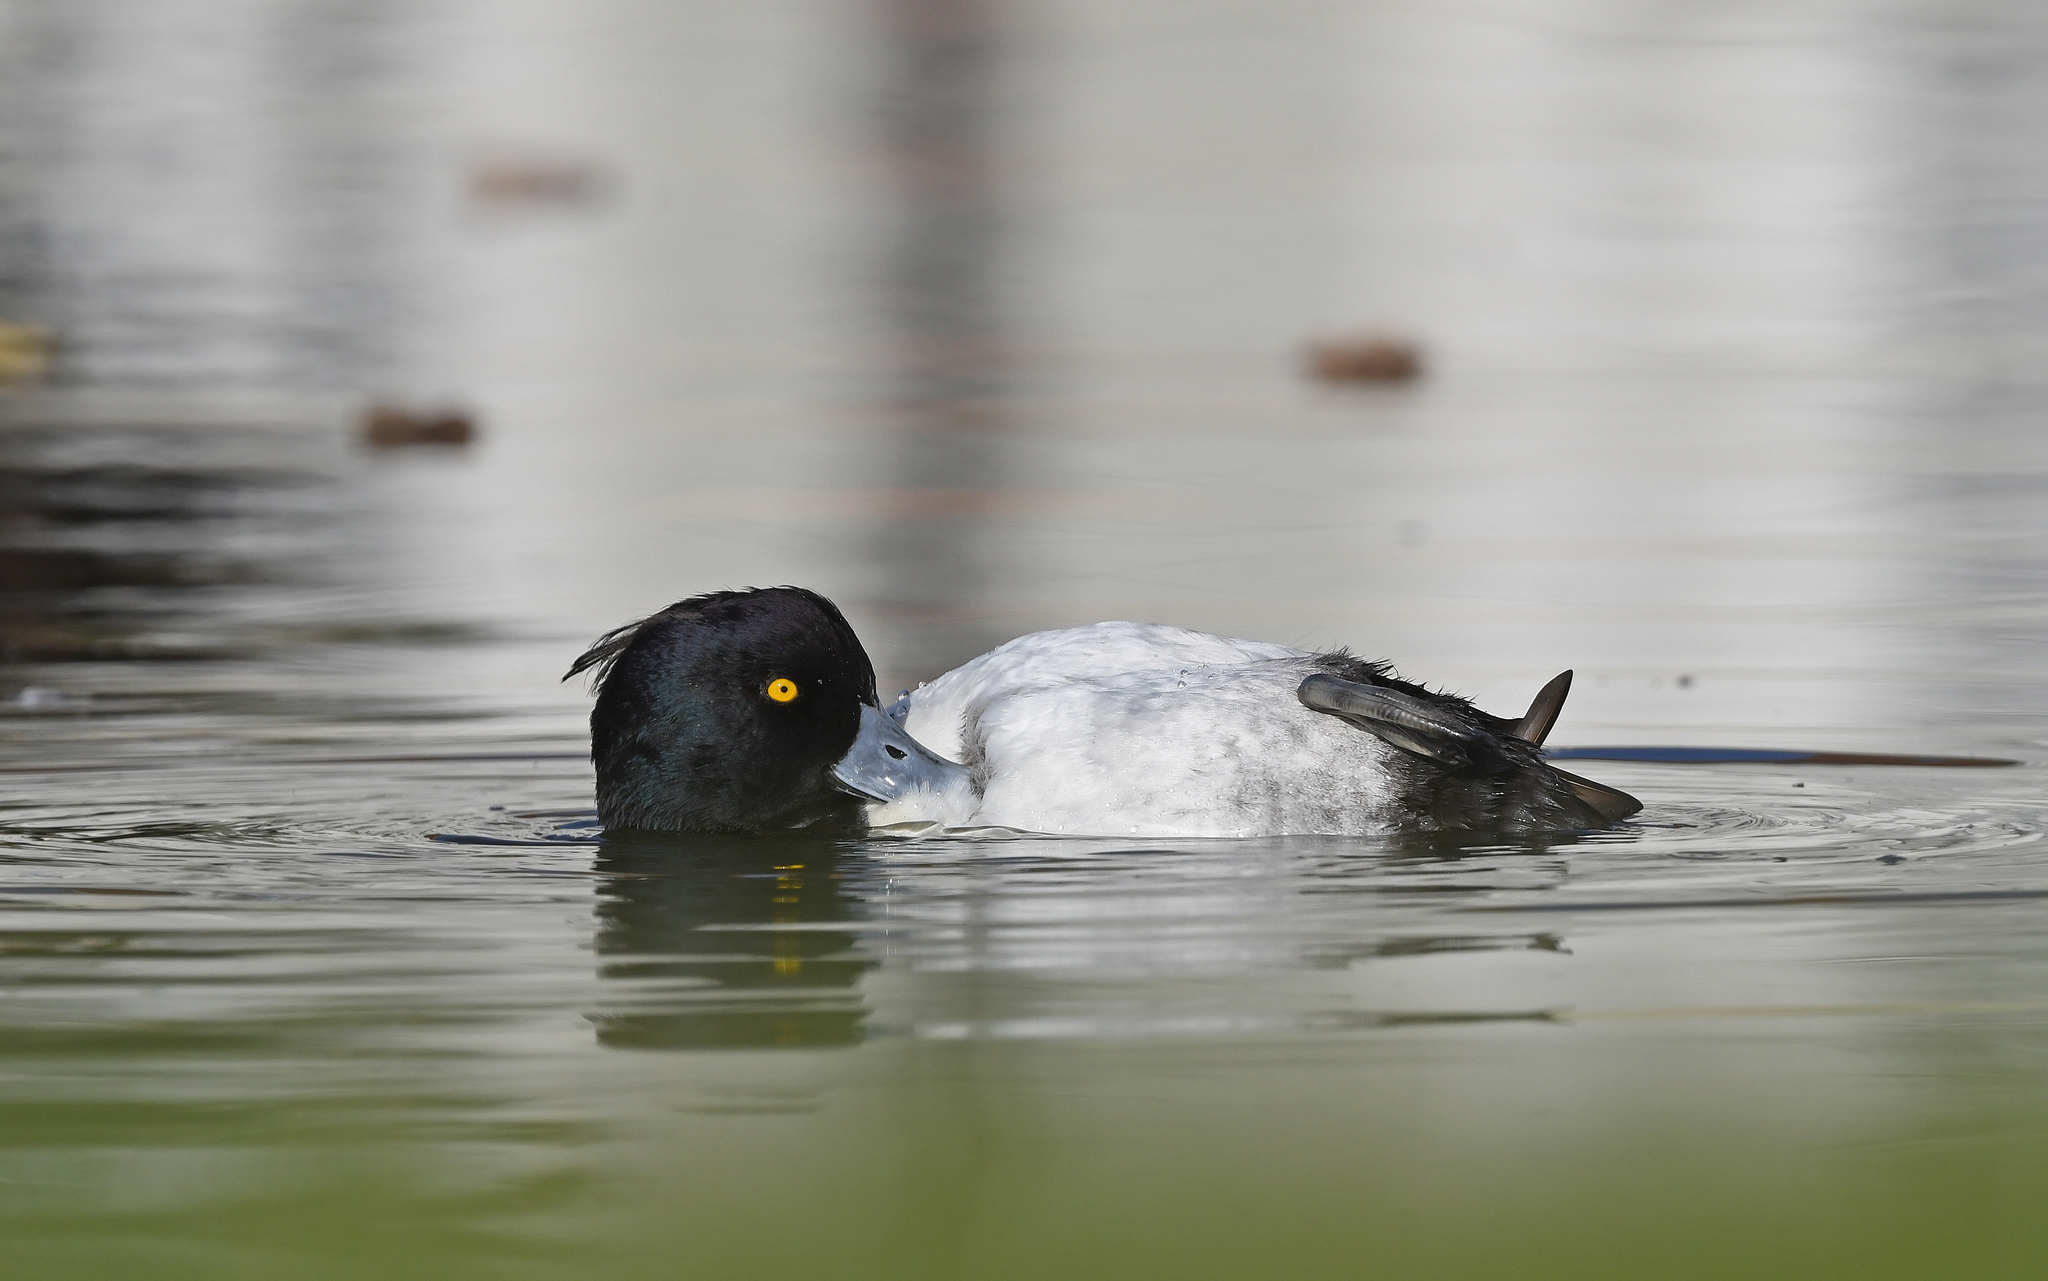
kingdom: Animalia
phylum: Chordata
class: Aves
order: Anseriformes
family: Anatidae
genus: Aythya
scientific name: Aythya fuligula
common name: Tufted duck
